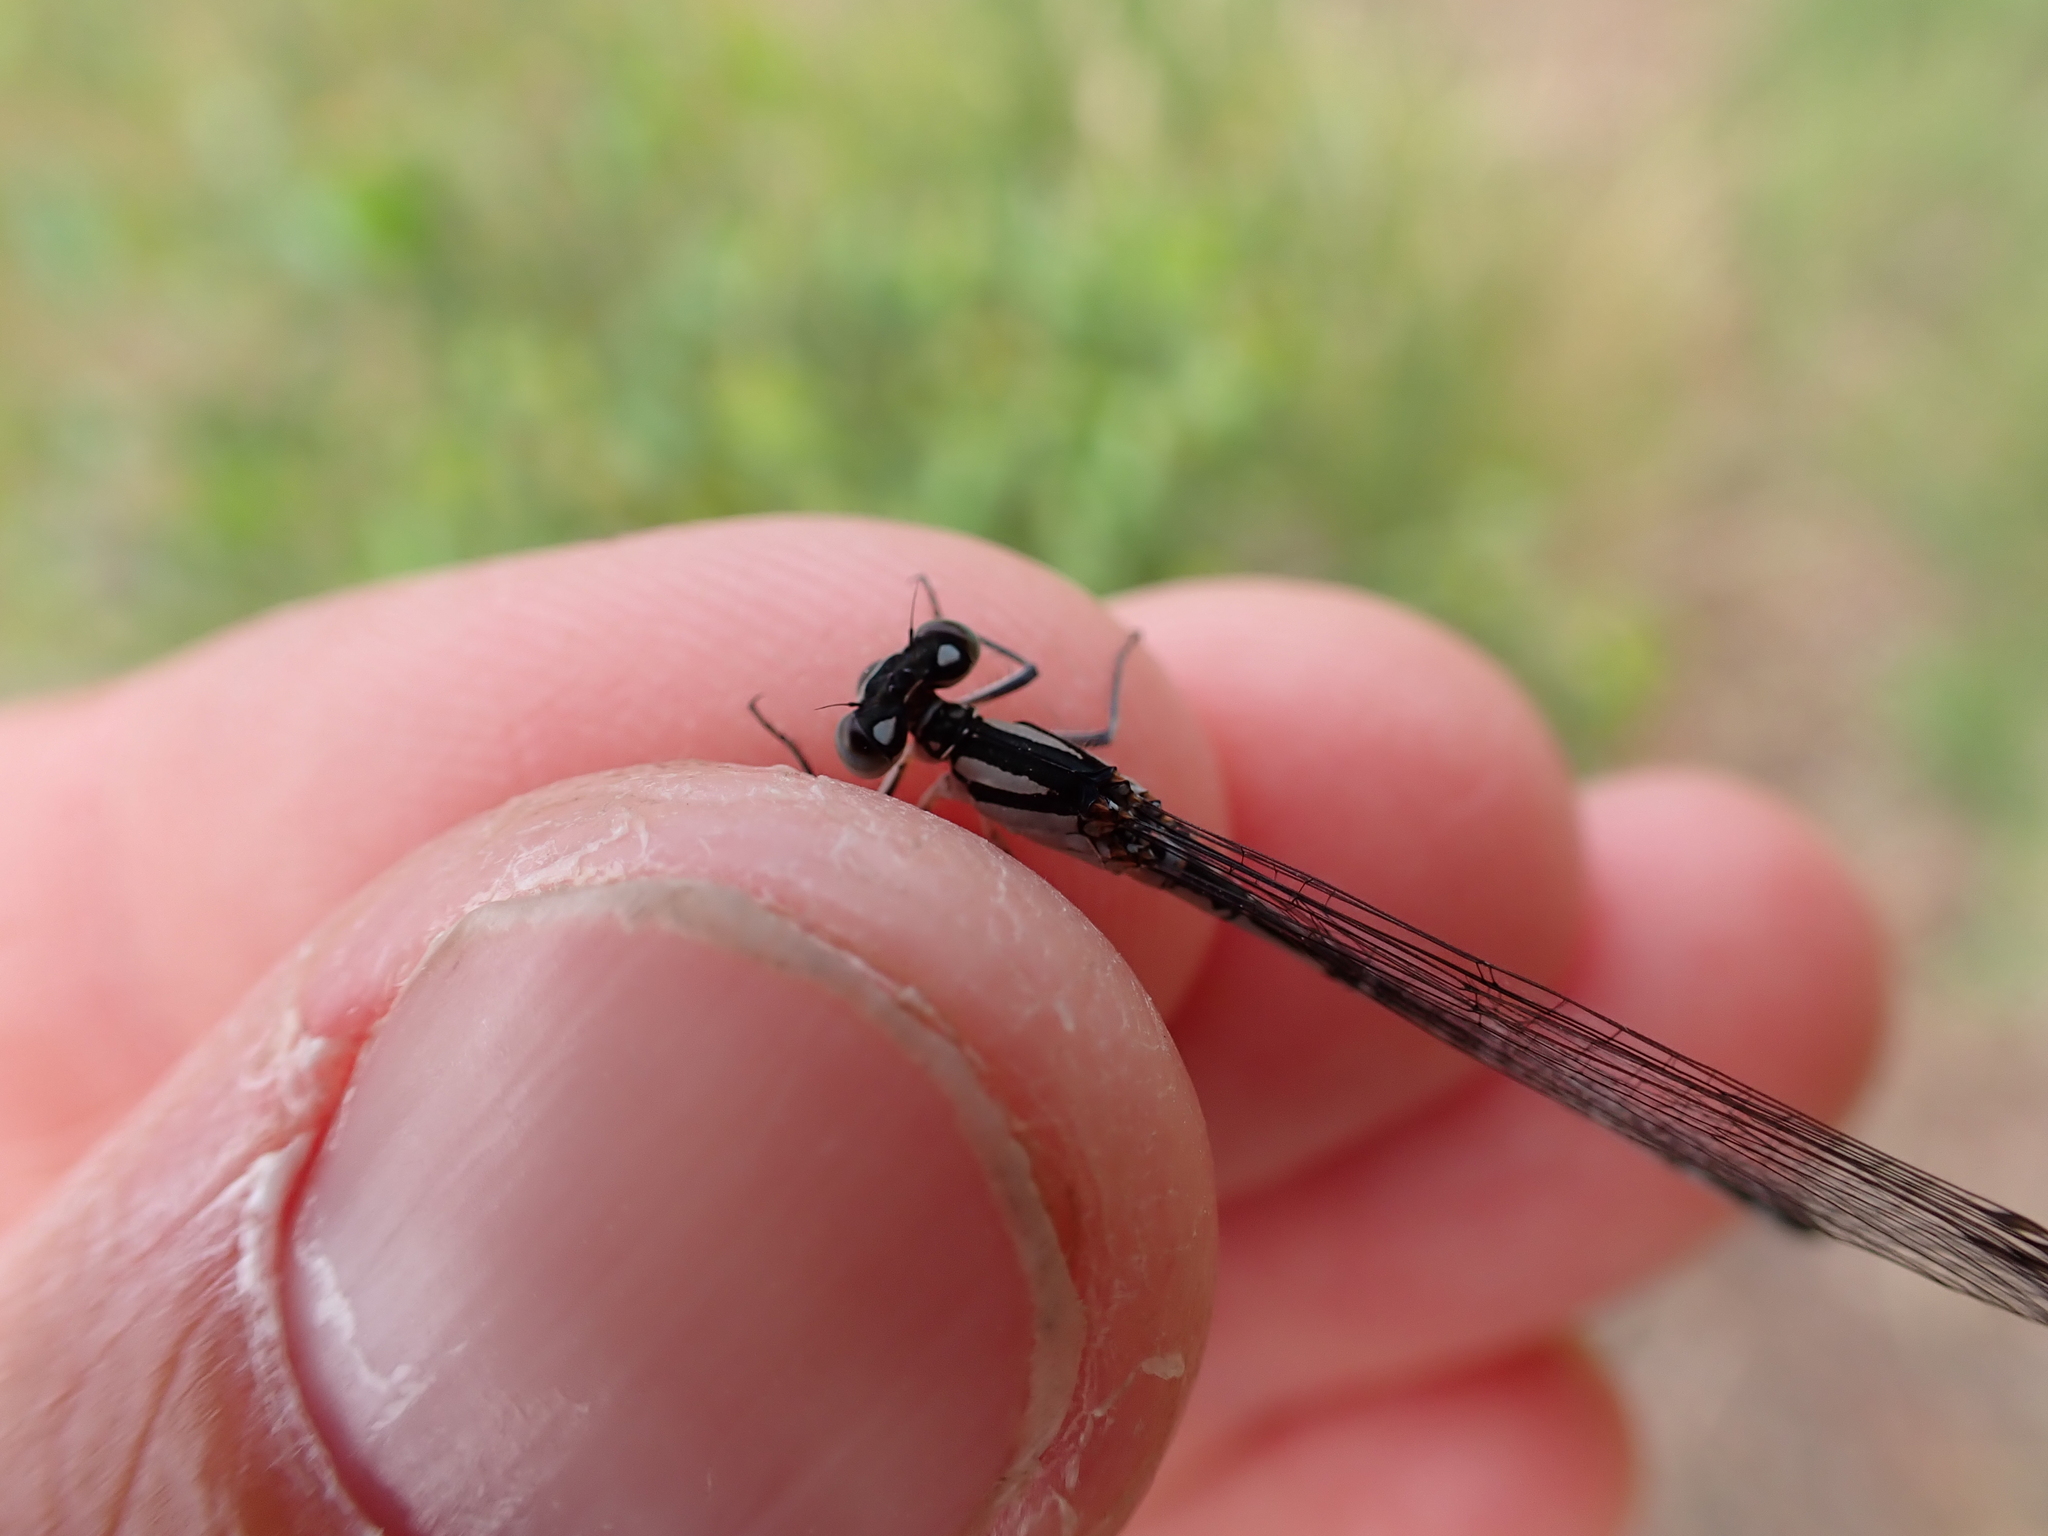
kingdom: Animalia
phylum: Arthropoda
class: Insecta
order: Odonata
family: Coenagrionidae
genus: Enallagma
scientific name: Enallagma cyathigerum
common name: Common blue damselfly
